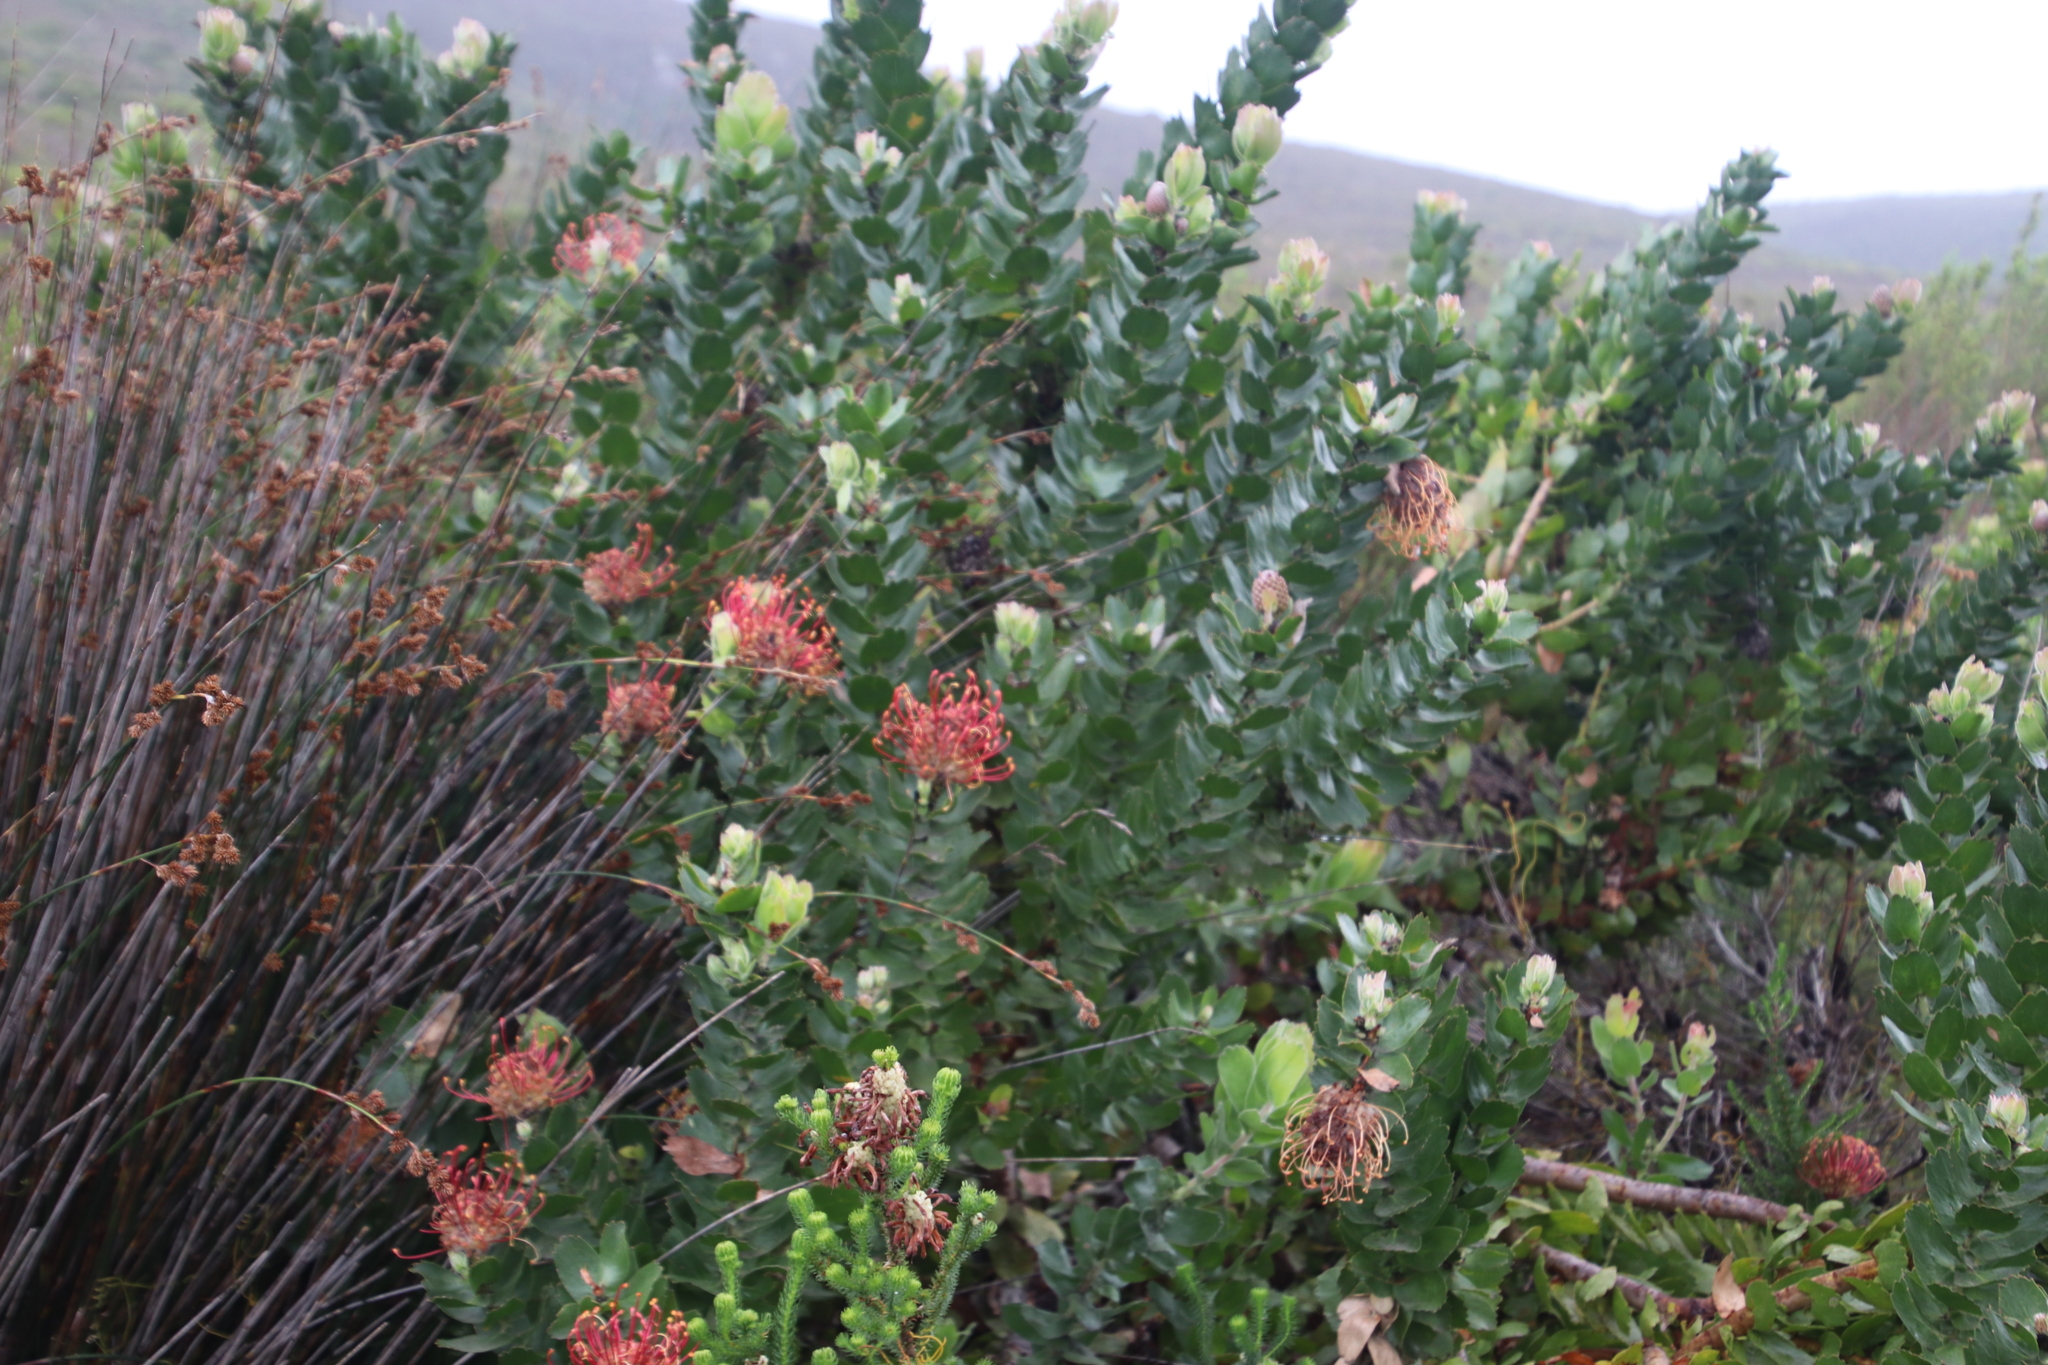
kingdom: Plantae
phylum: Tracheophyta
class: Magnoliopsida
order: Proteales
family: Proteaceae
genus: Leucospermum
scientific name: Leucospermum patersonii
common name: False tree pincushion
